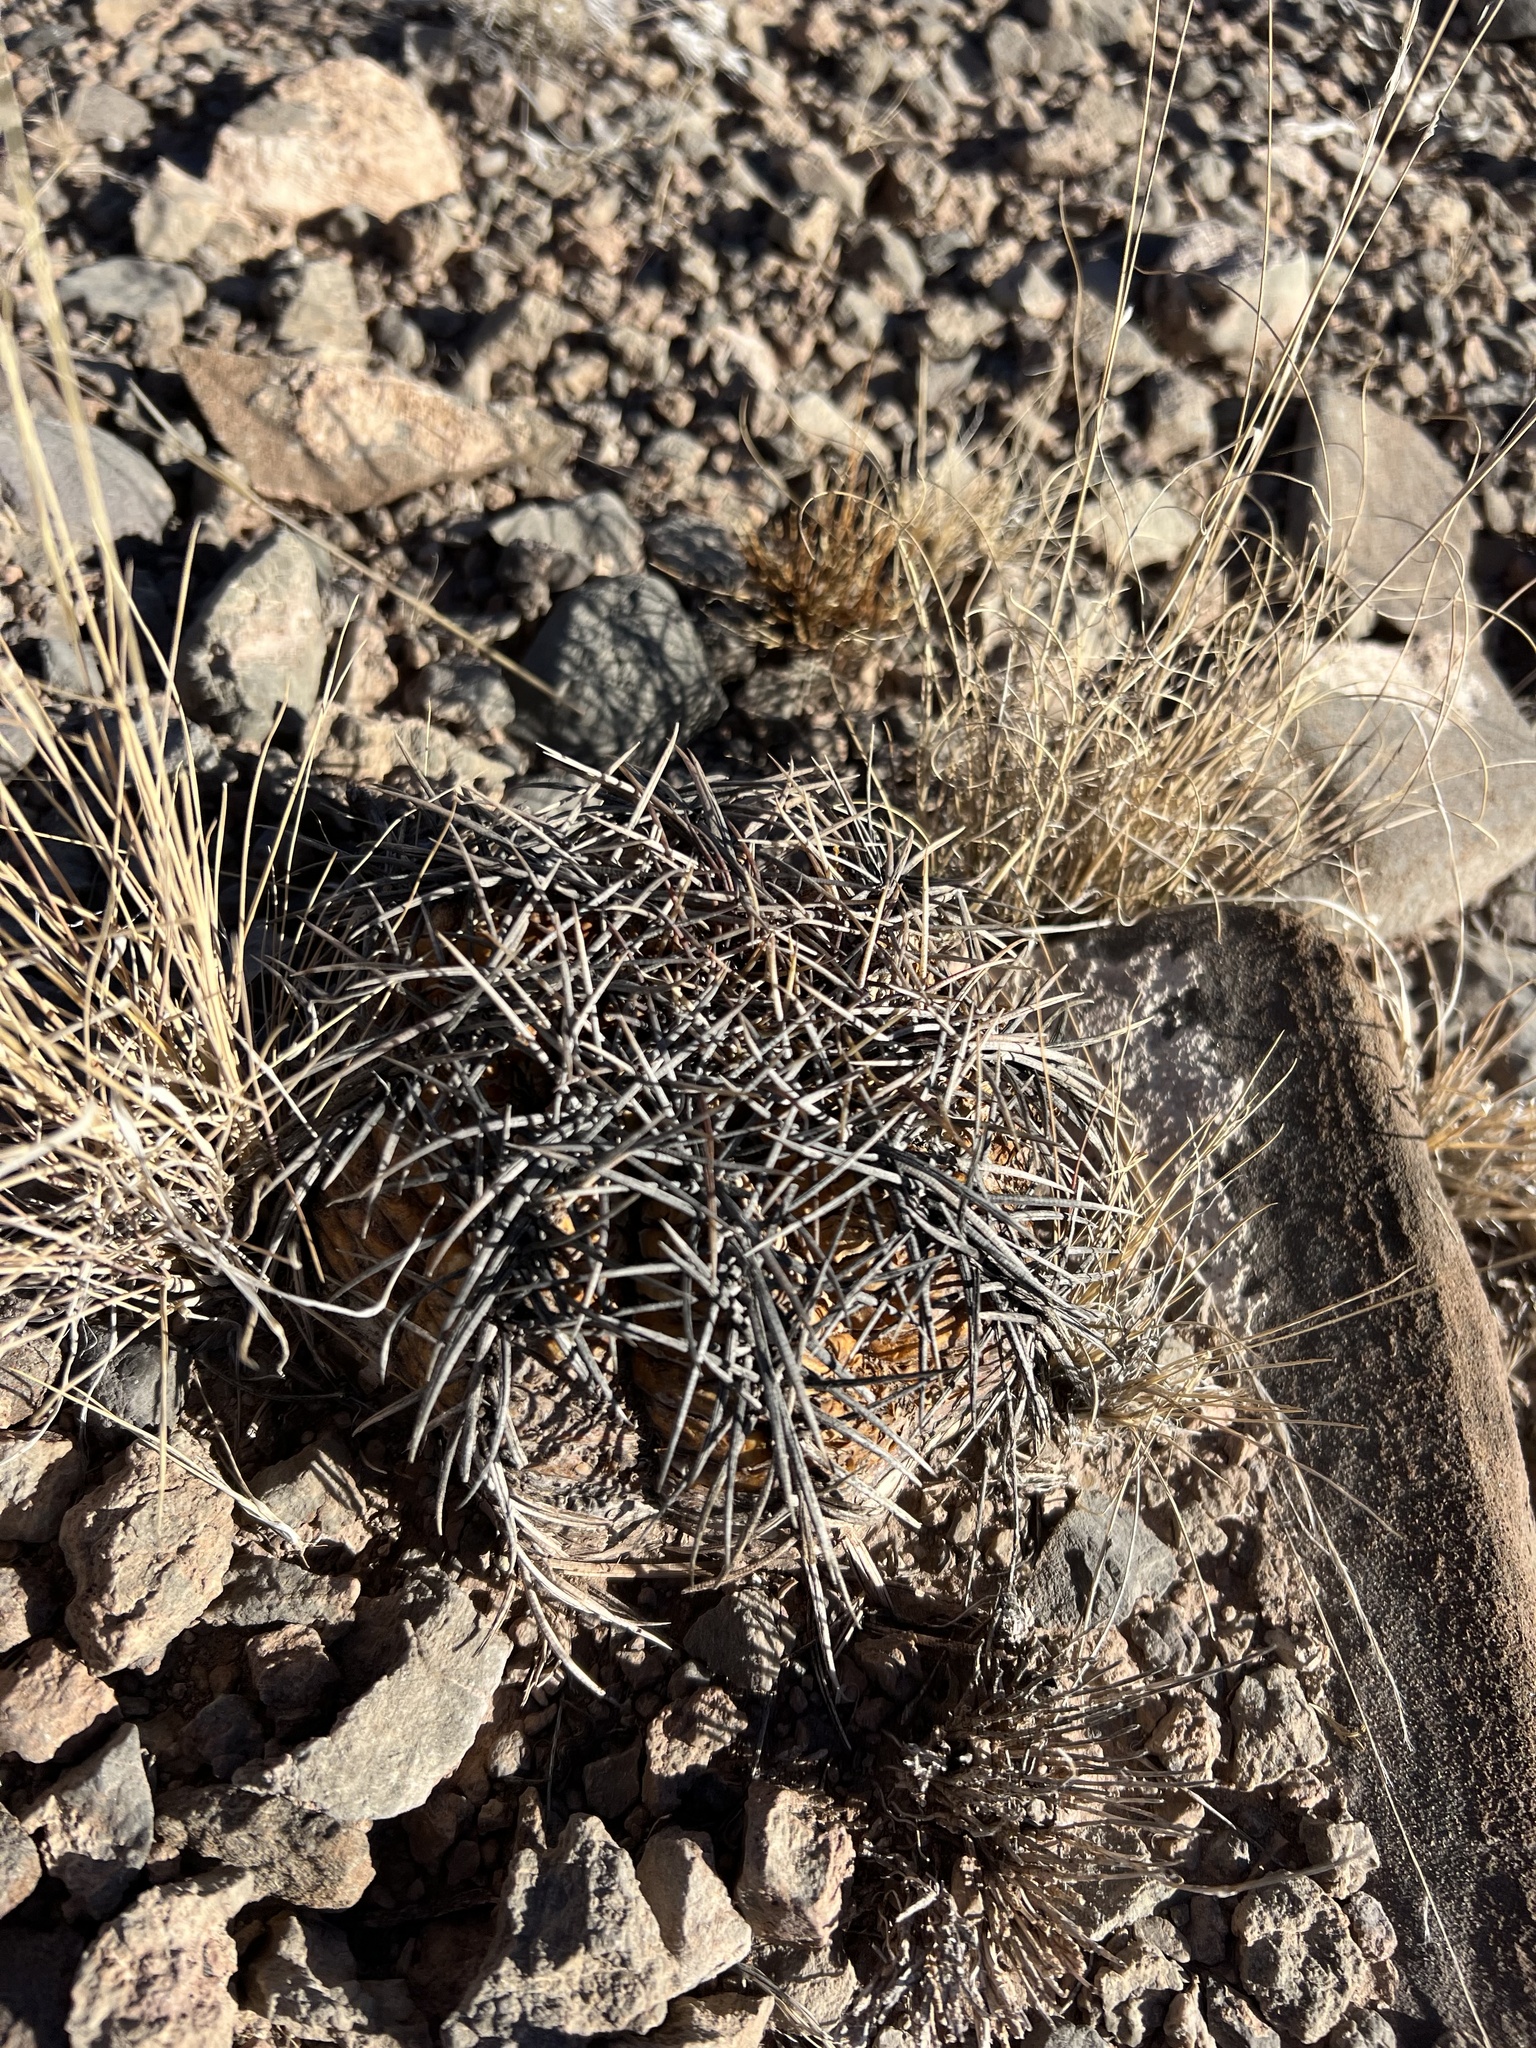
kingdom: Plantae
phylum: Tracheophyta
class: Magnoliopsida
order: Caryophyllales
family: Cactaceae
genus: Echinocactus
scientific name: Echinocactus horizonthalonius
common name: Devilshead
